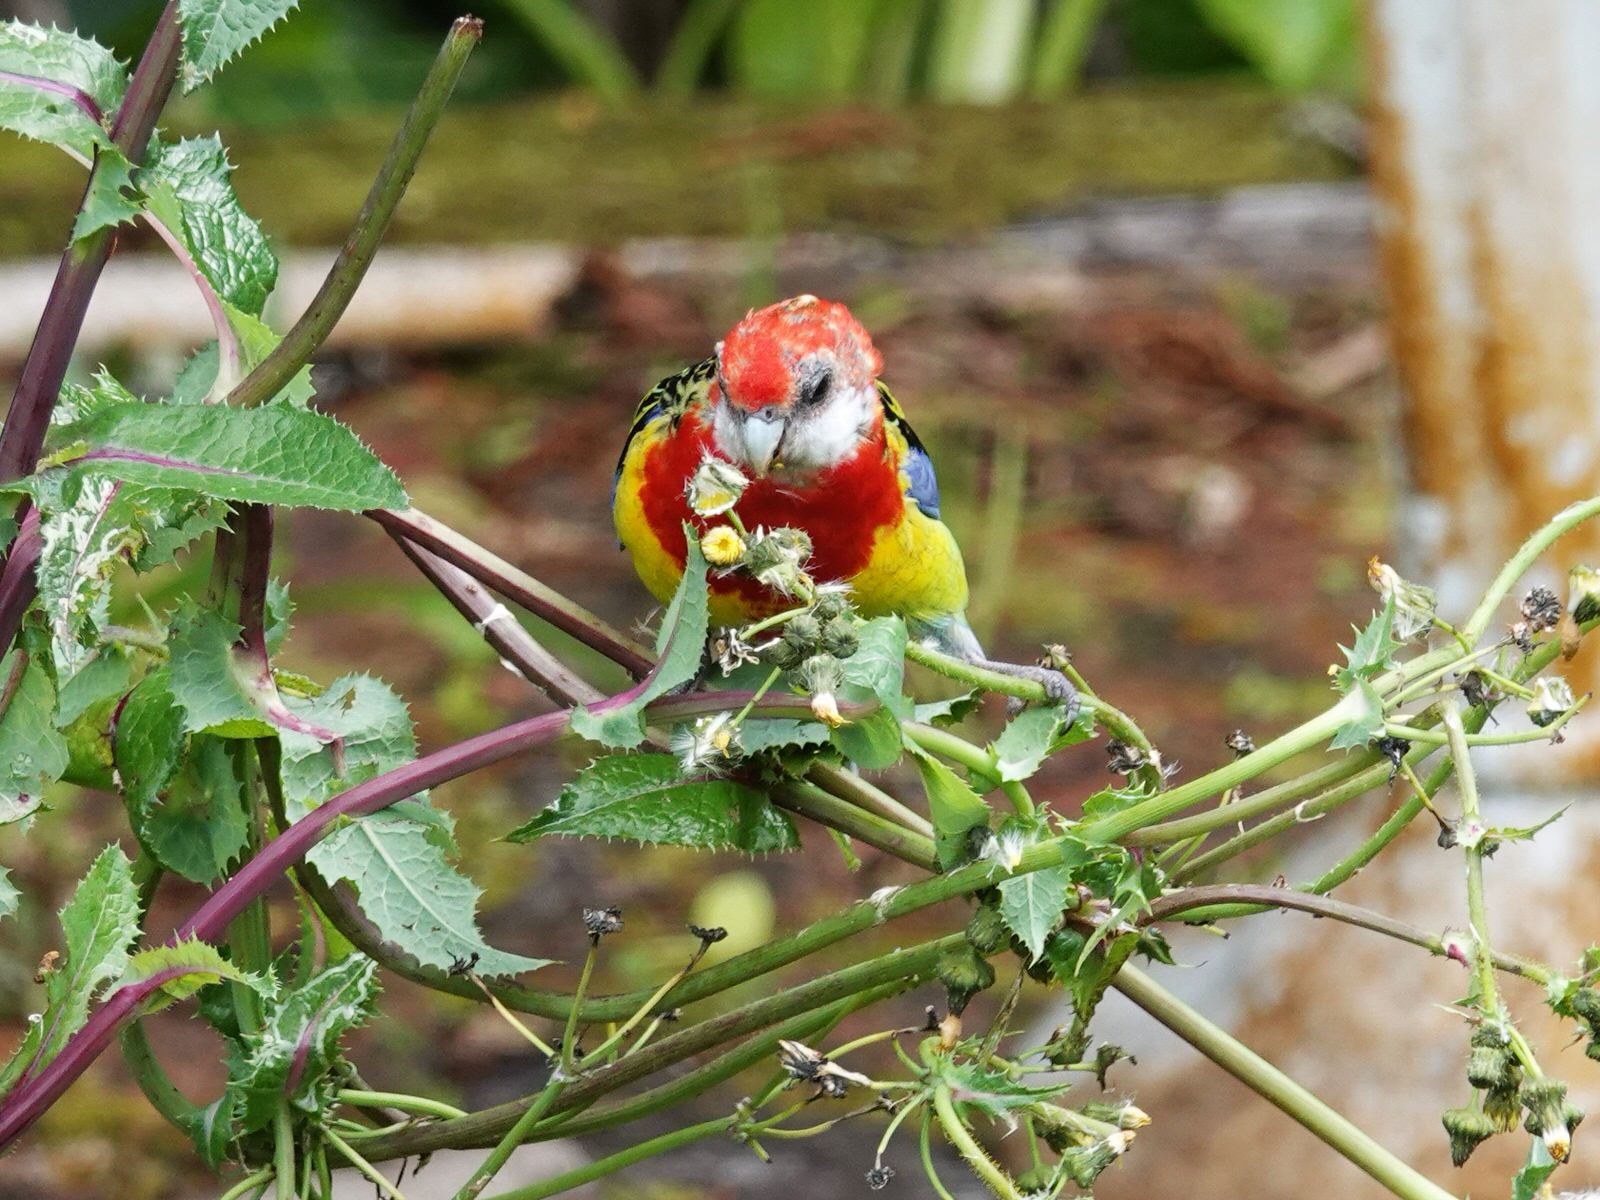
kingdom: Animalia
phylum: Chordata
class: Aves
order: Psittaciformes
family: Psittacidae
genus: Platycercus
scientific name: Platycercus eximius
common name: Eastern rosella
